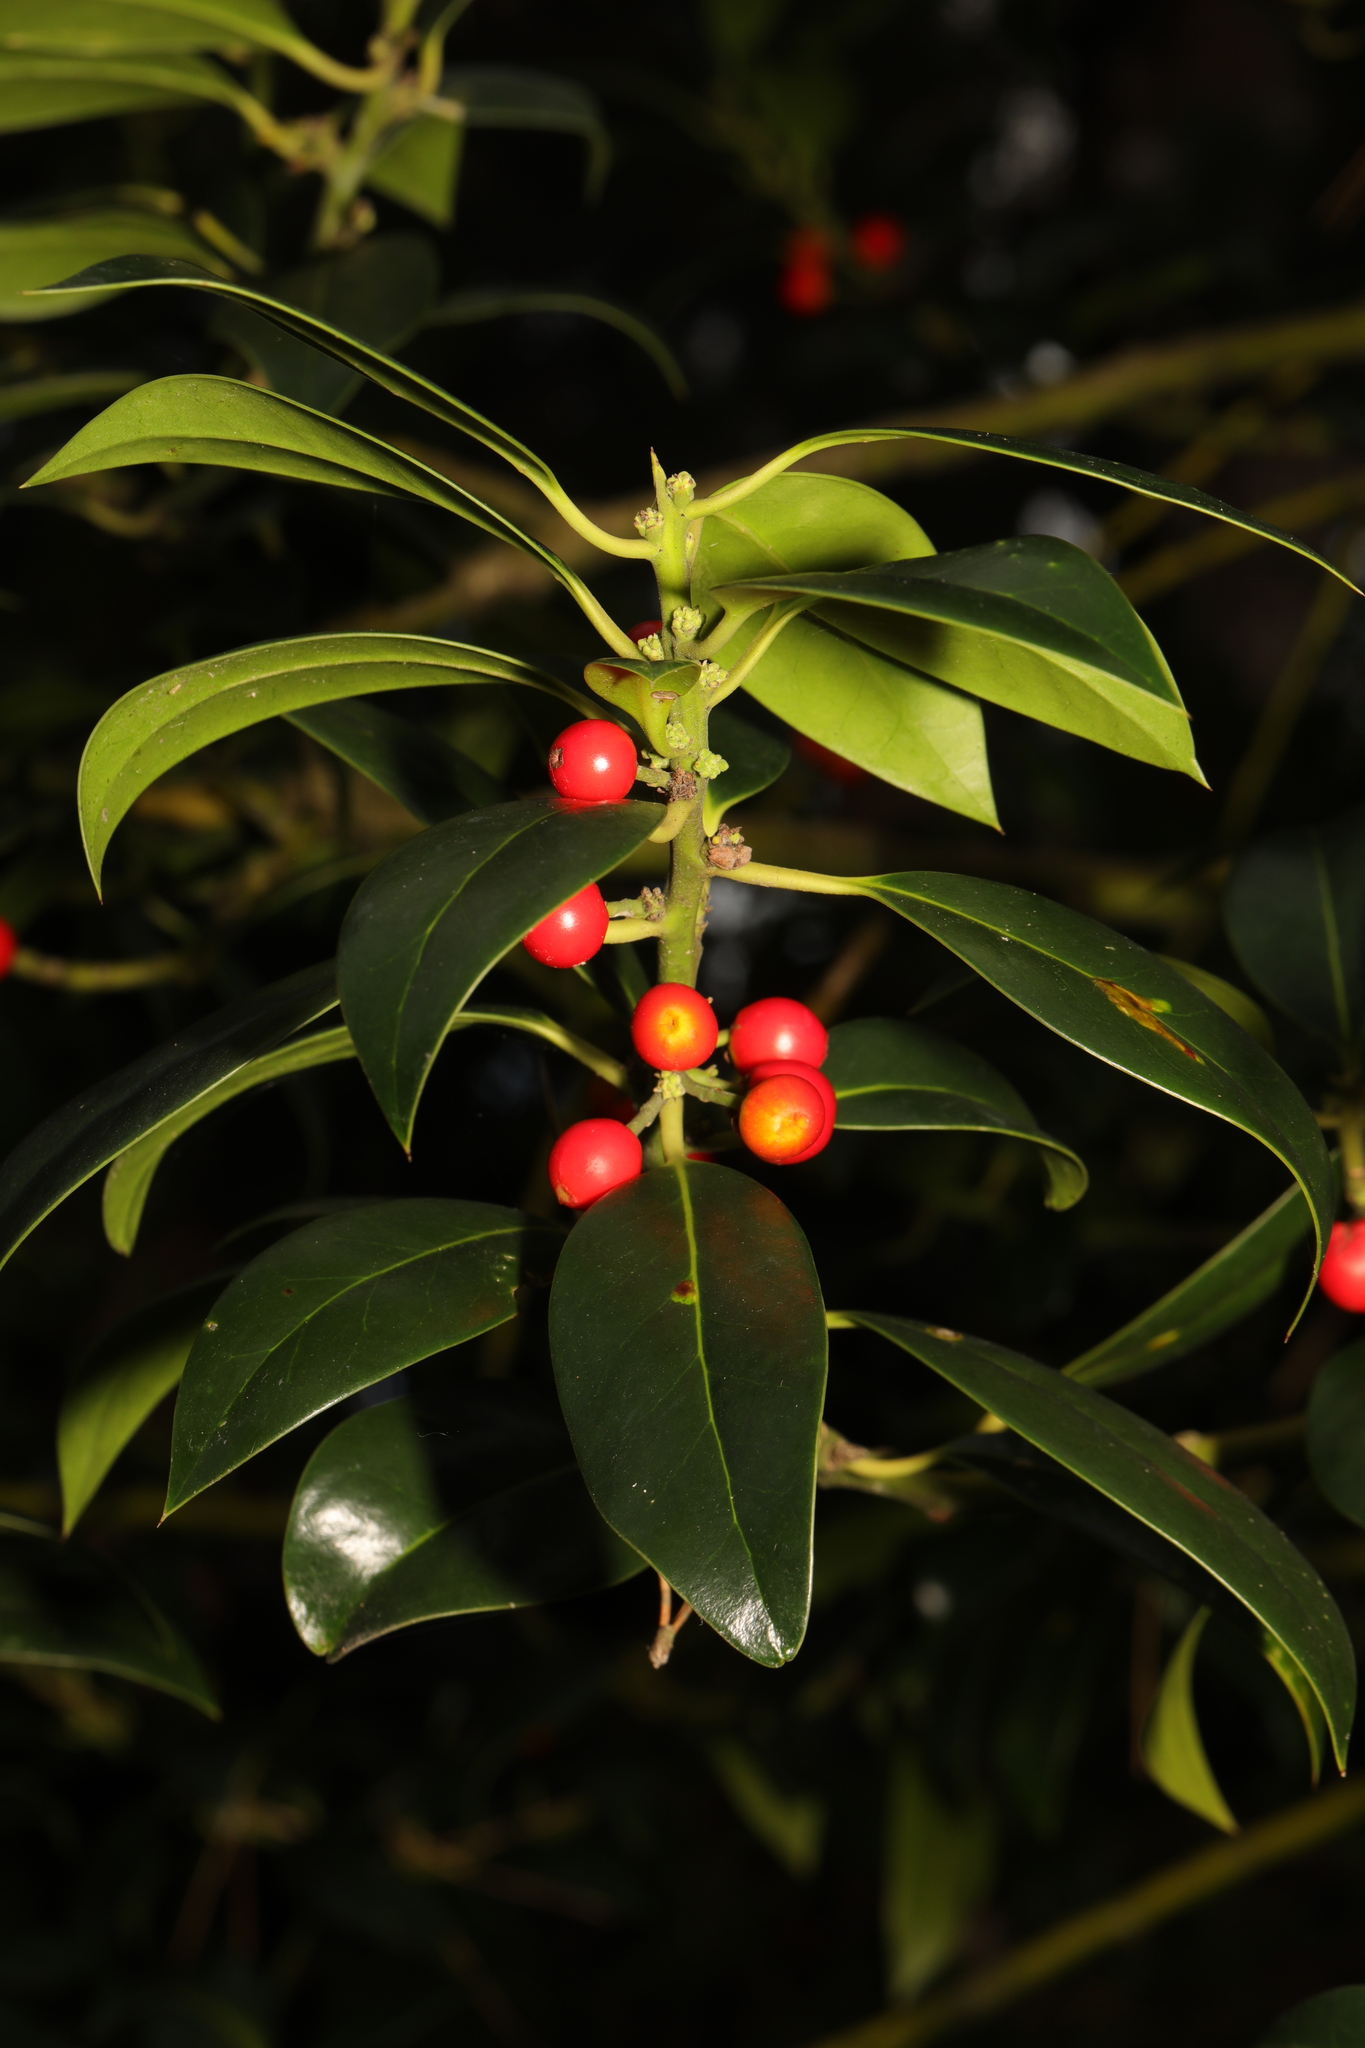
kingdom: Plantae
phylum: Tracheophyta
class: Magnoliopsida
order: Aquifoliales
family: Aquifoliaceae
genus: Ilex
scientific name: Ilex aquifolium
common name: English holly
